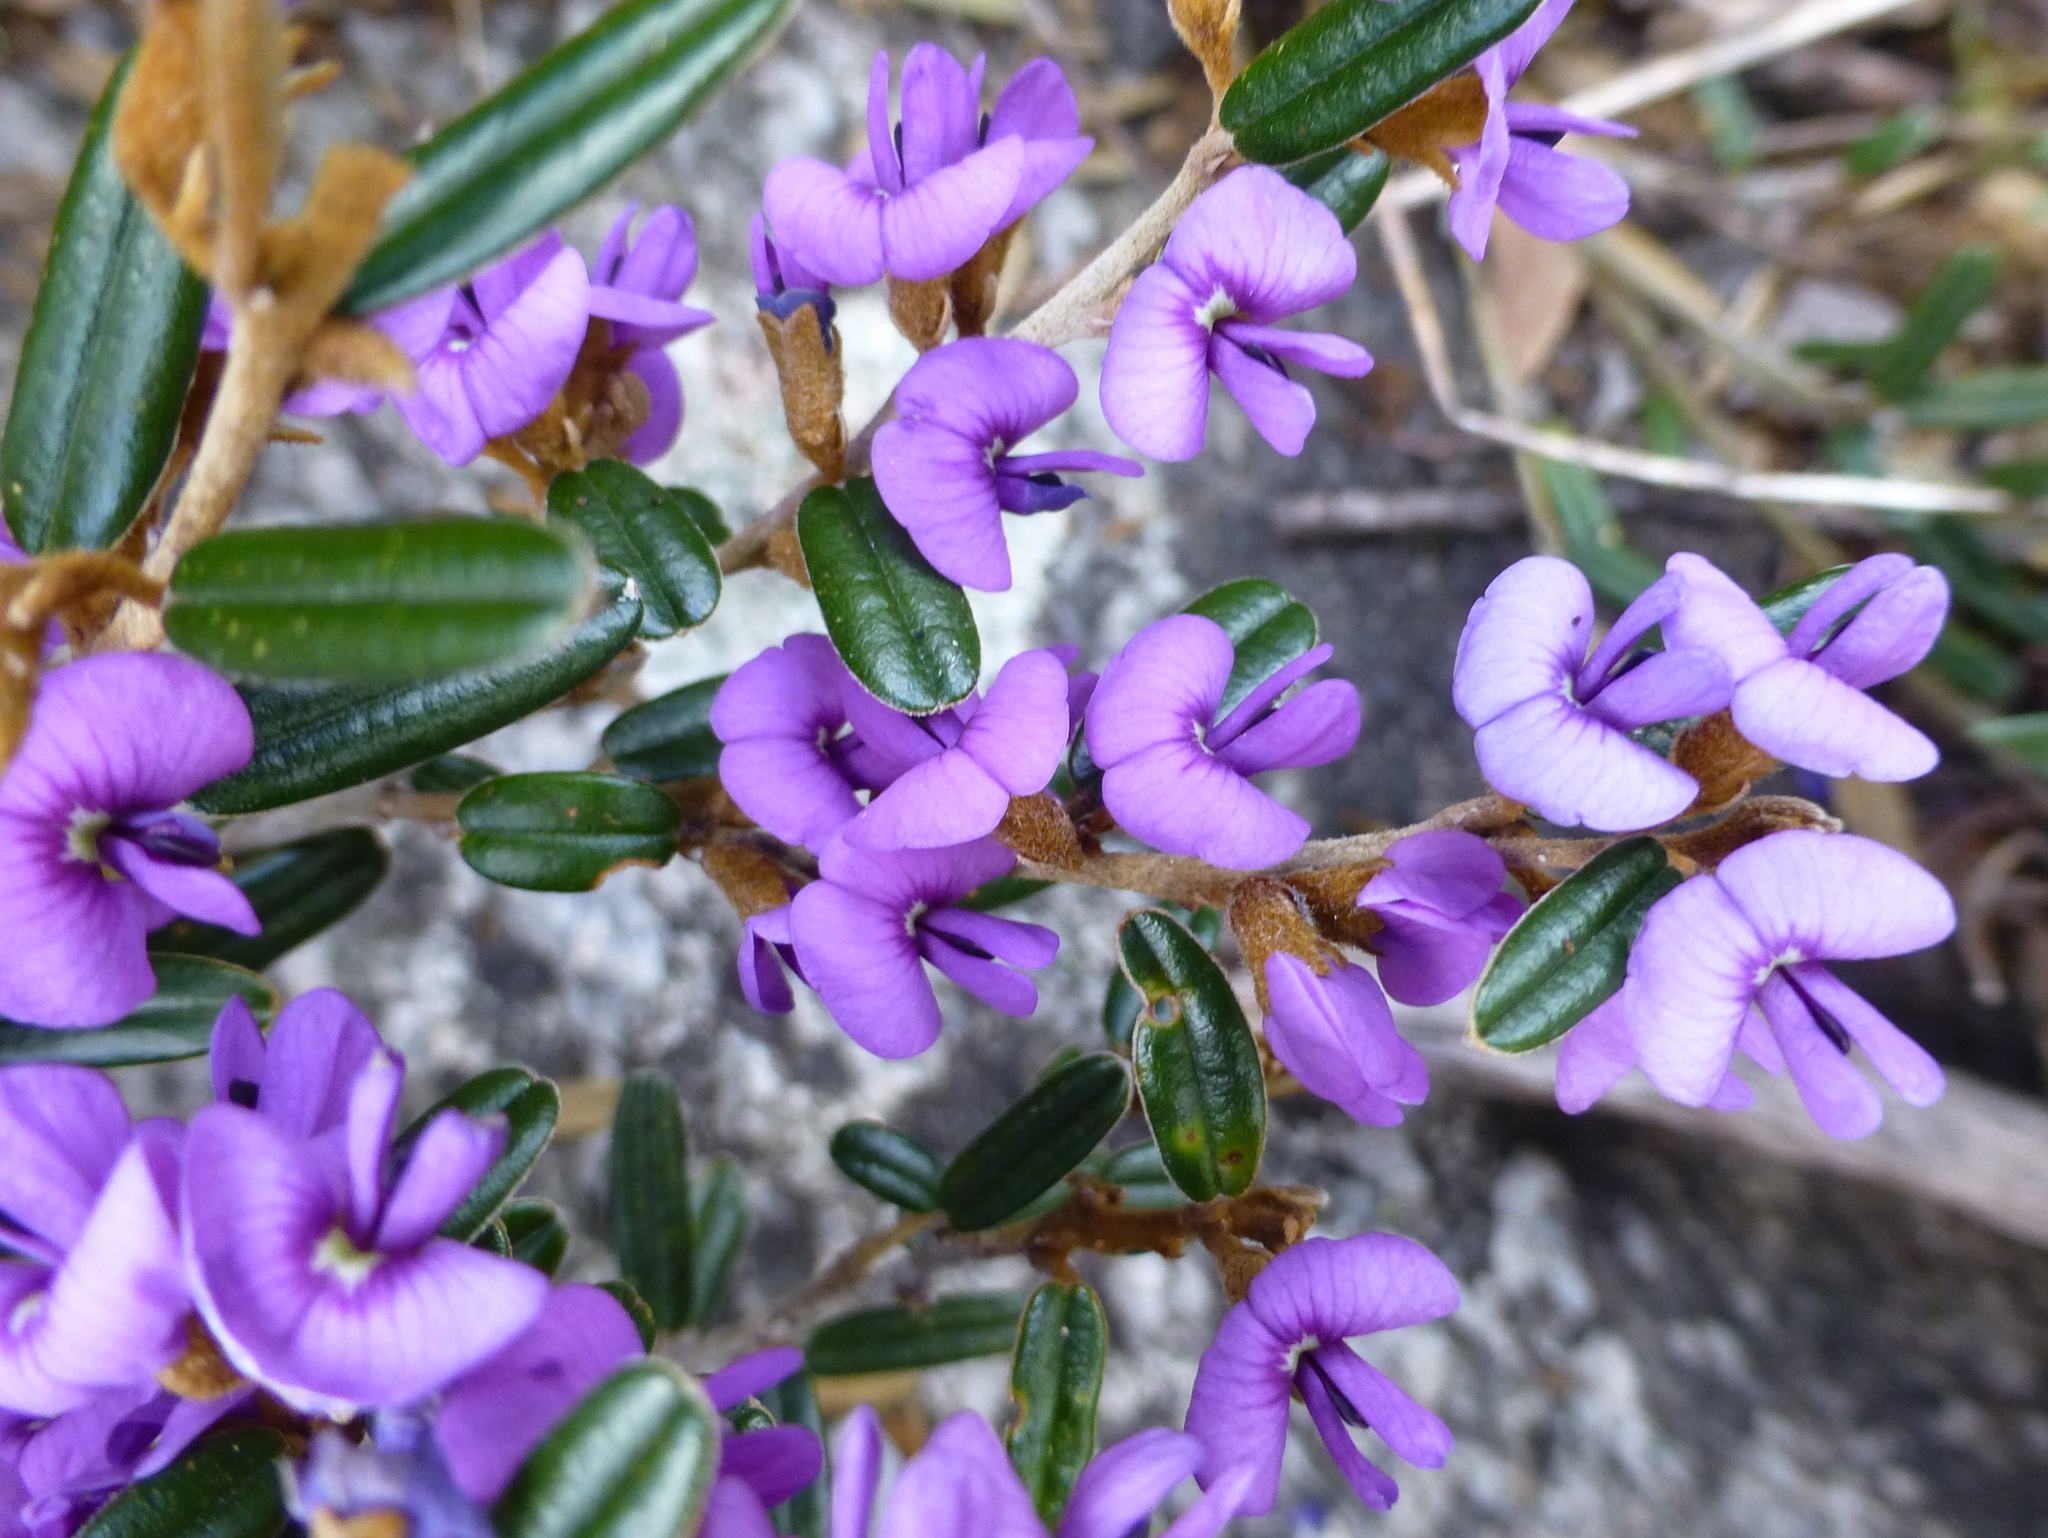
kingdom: Plantae
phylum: Tracheophyta
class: Magnoliopsida
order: Fabales
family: Fabaceae
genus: Hovea
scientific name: Hovea montana
